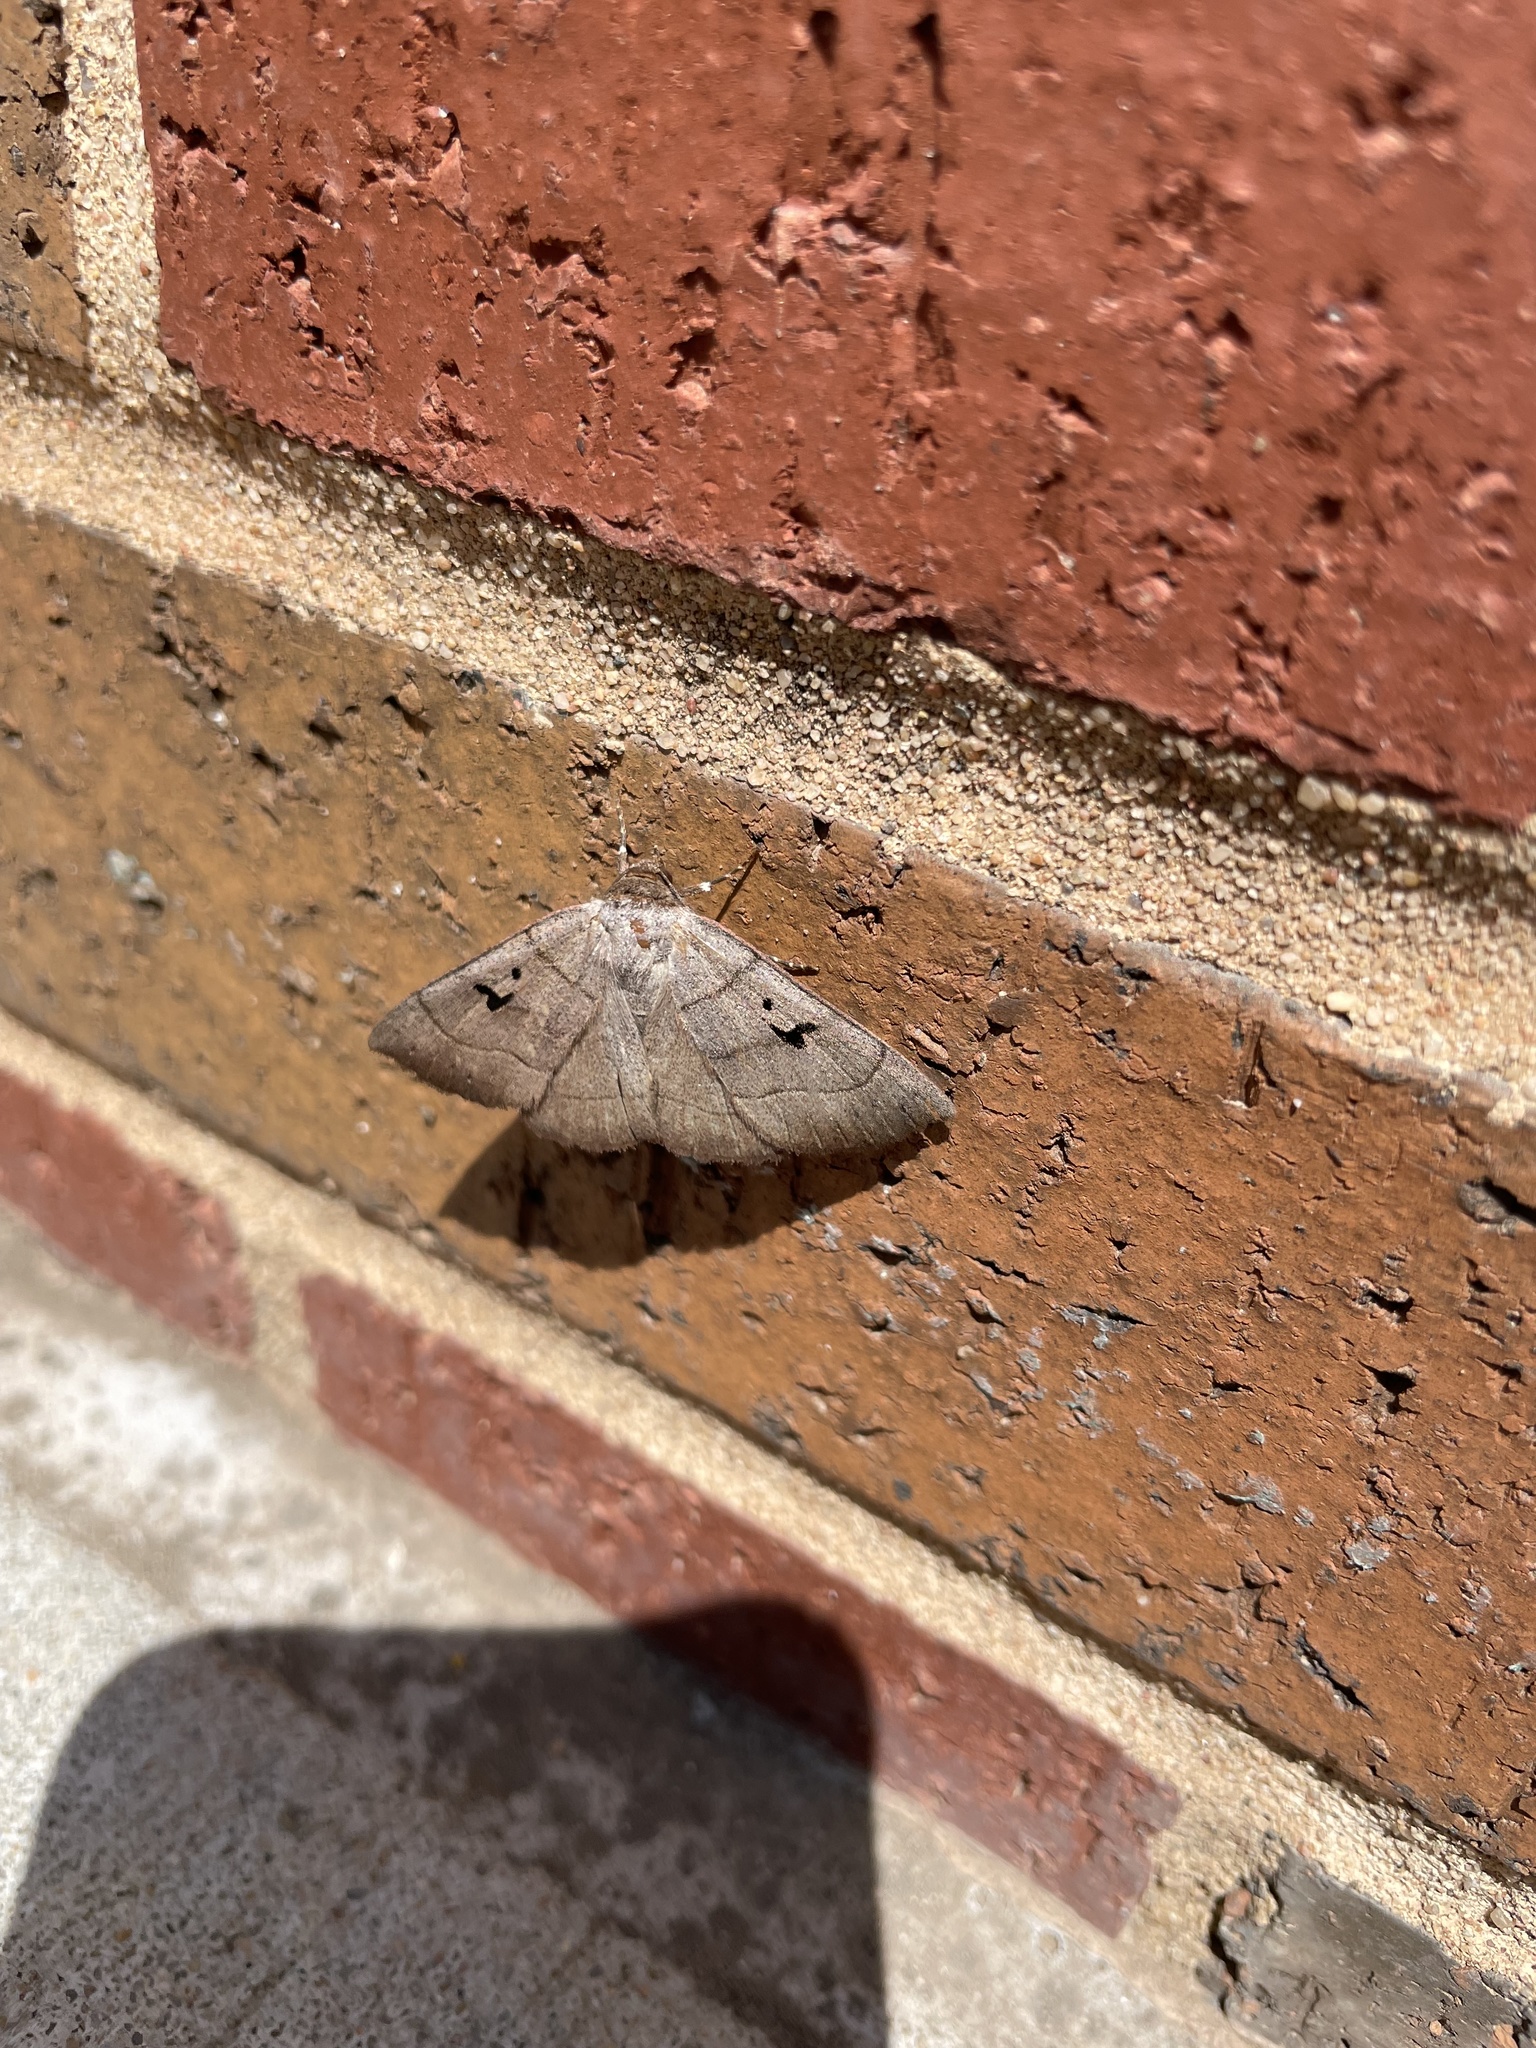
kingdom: Animalia
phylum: Arthropoda
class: Insecta
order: Lepidoptera
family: Erebidae
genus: Panopoda
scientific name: Panopoda carneicosta
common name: Brown panopoda moth
